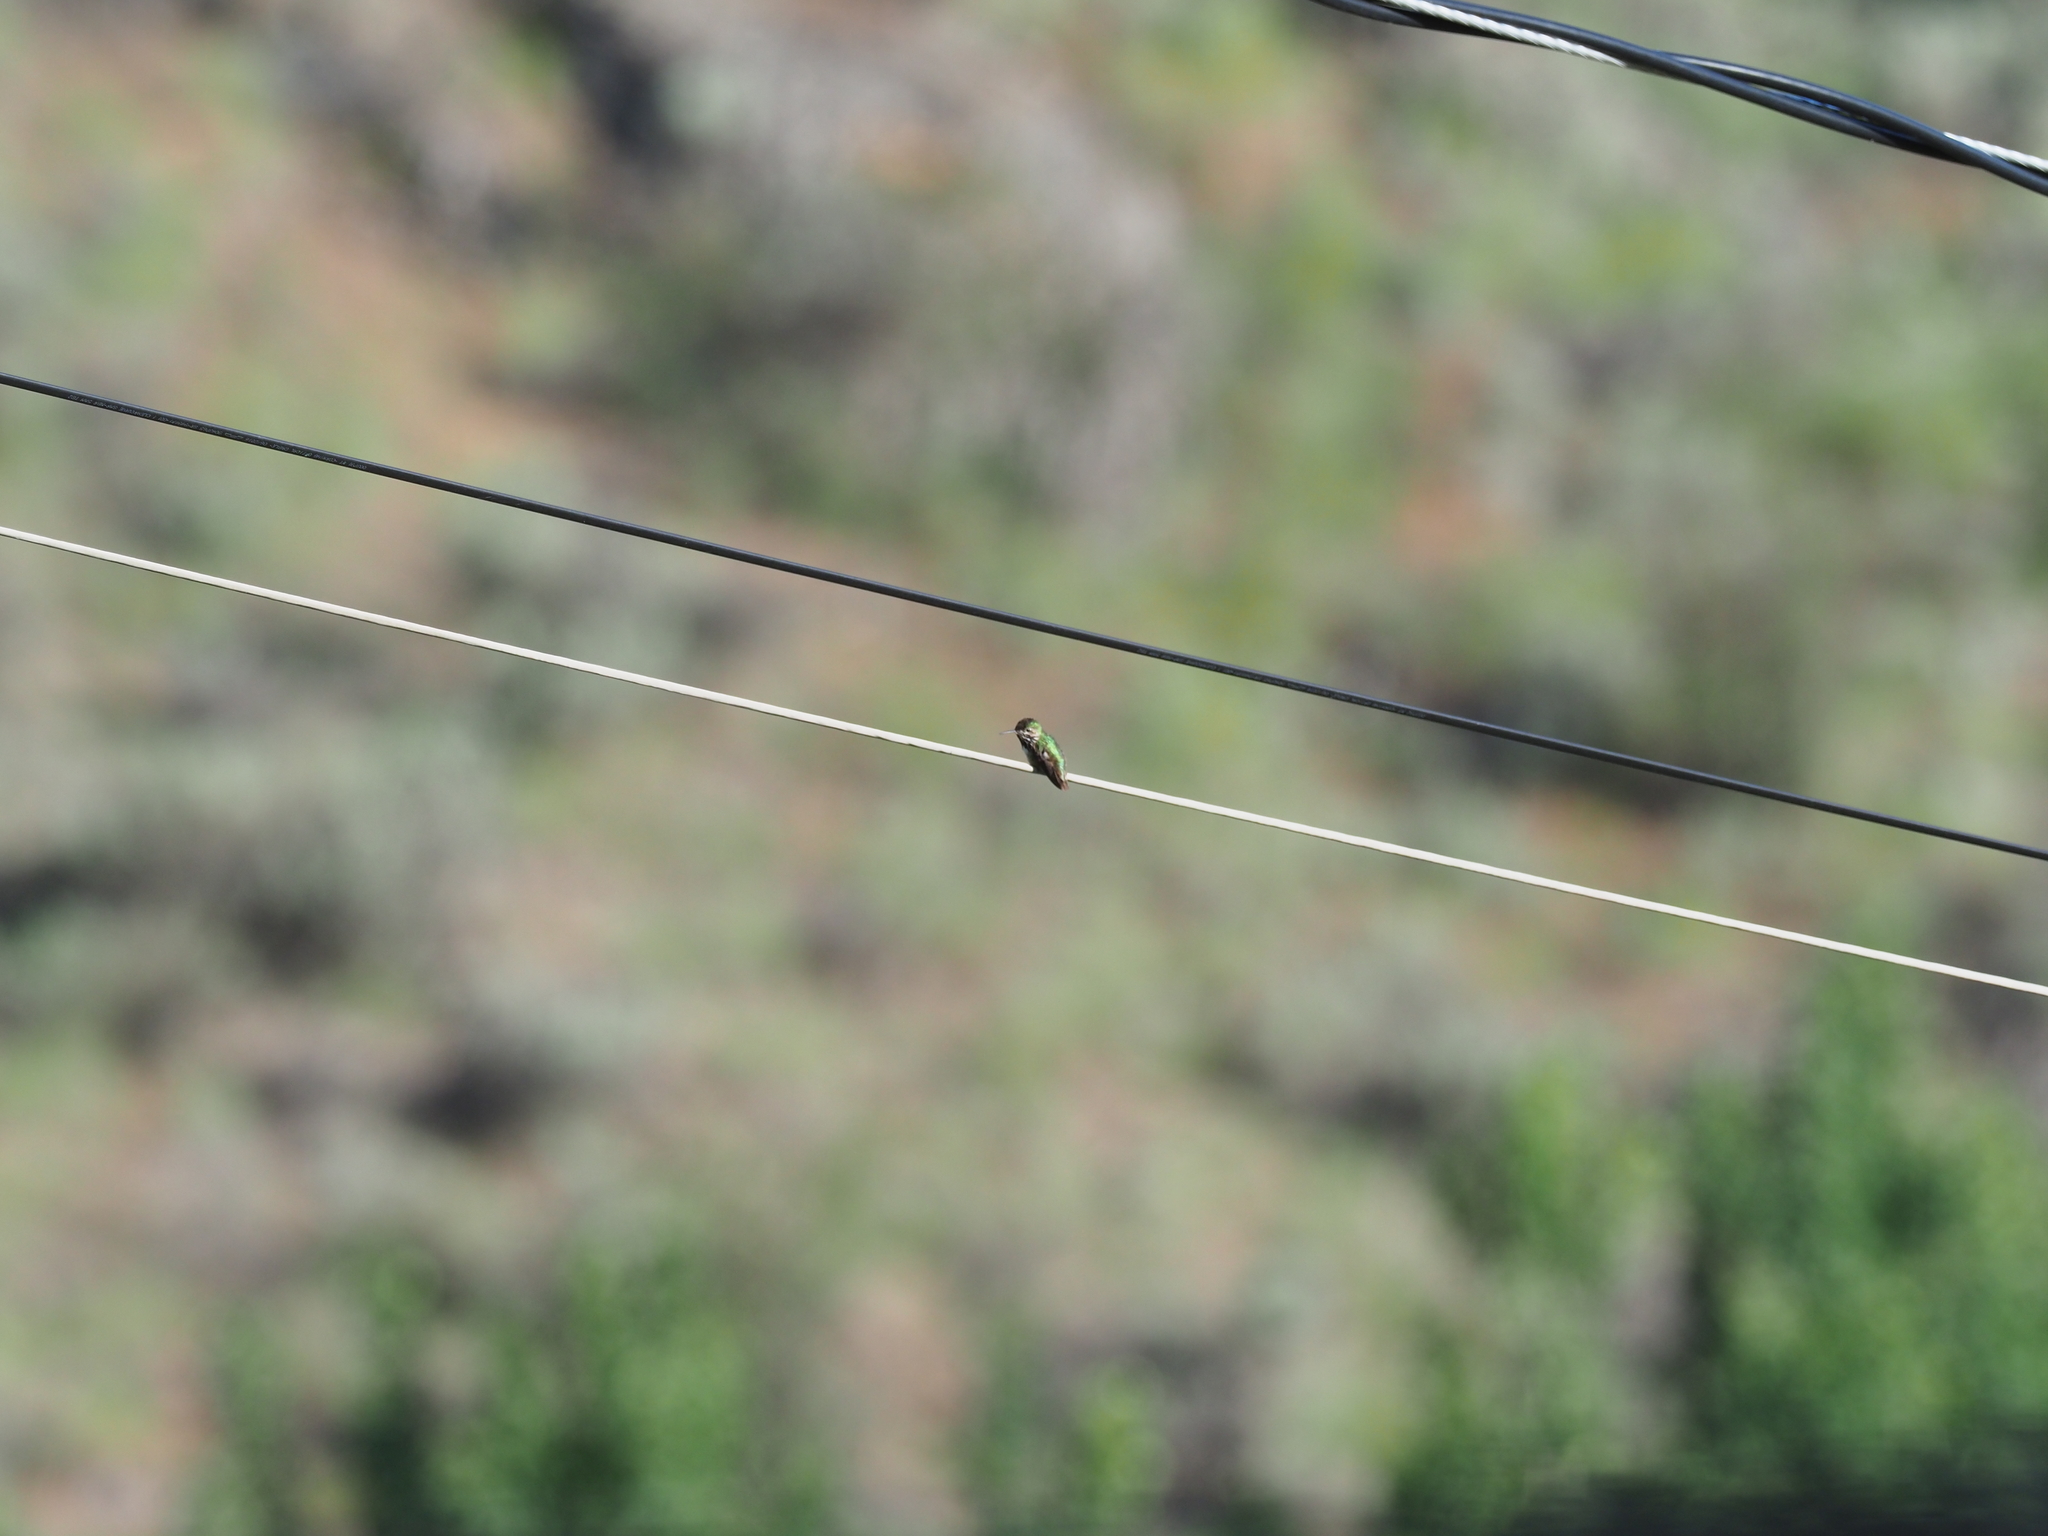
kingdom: Animalia
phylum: Chordata
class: Aves
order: Apodiformes
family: Trochilidae
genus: Selasphorus
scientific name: Selasphorus calliope
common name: Calliope hummingbird
